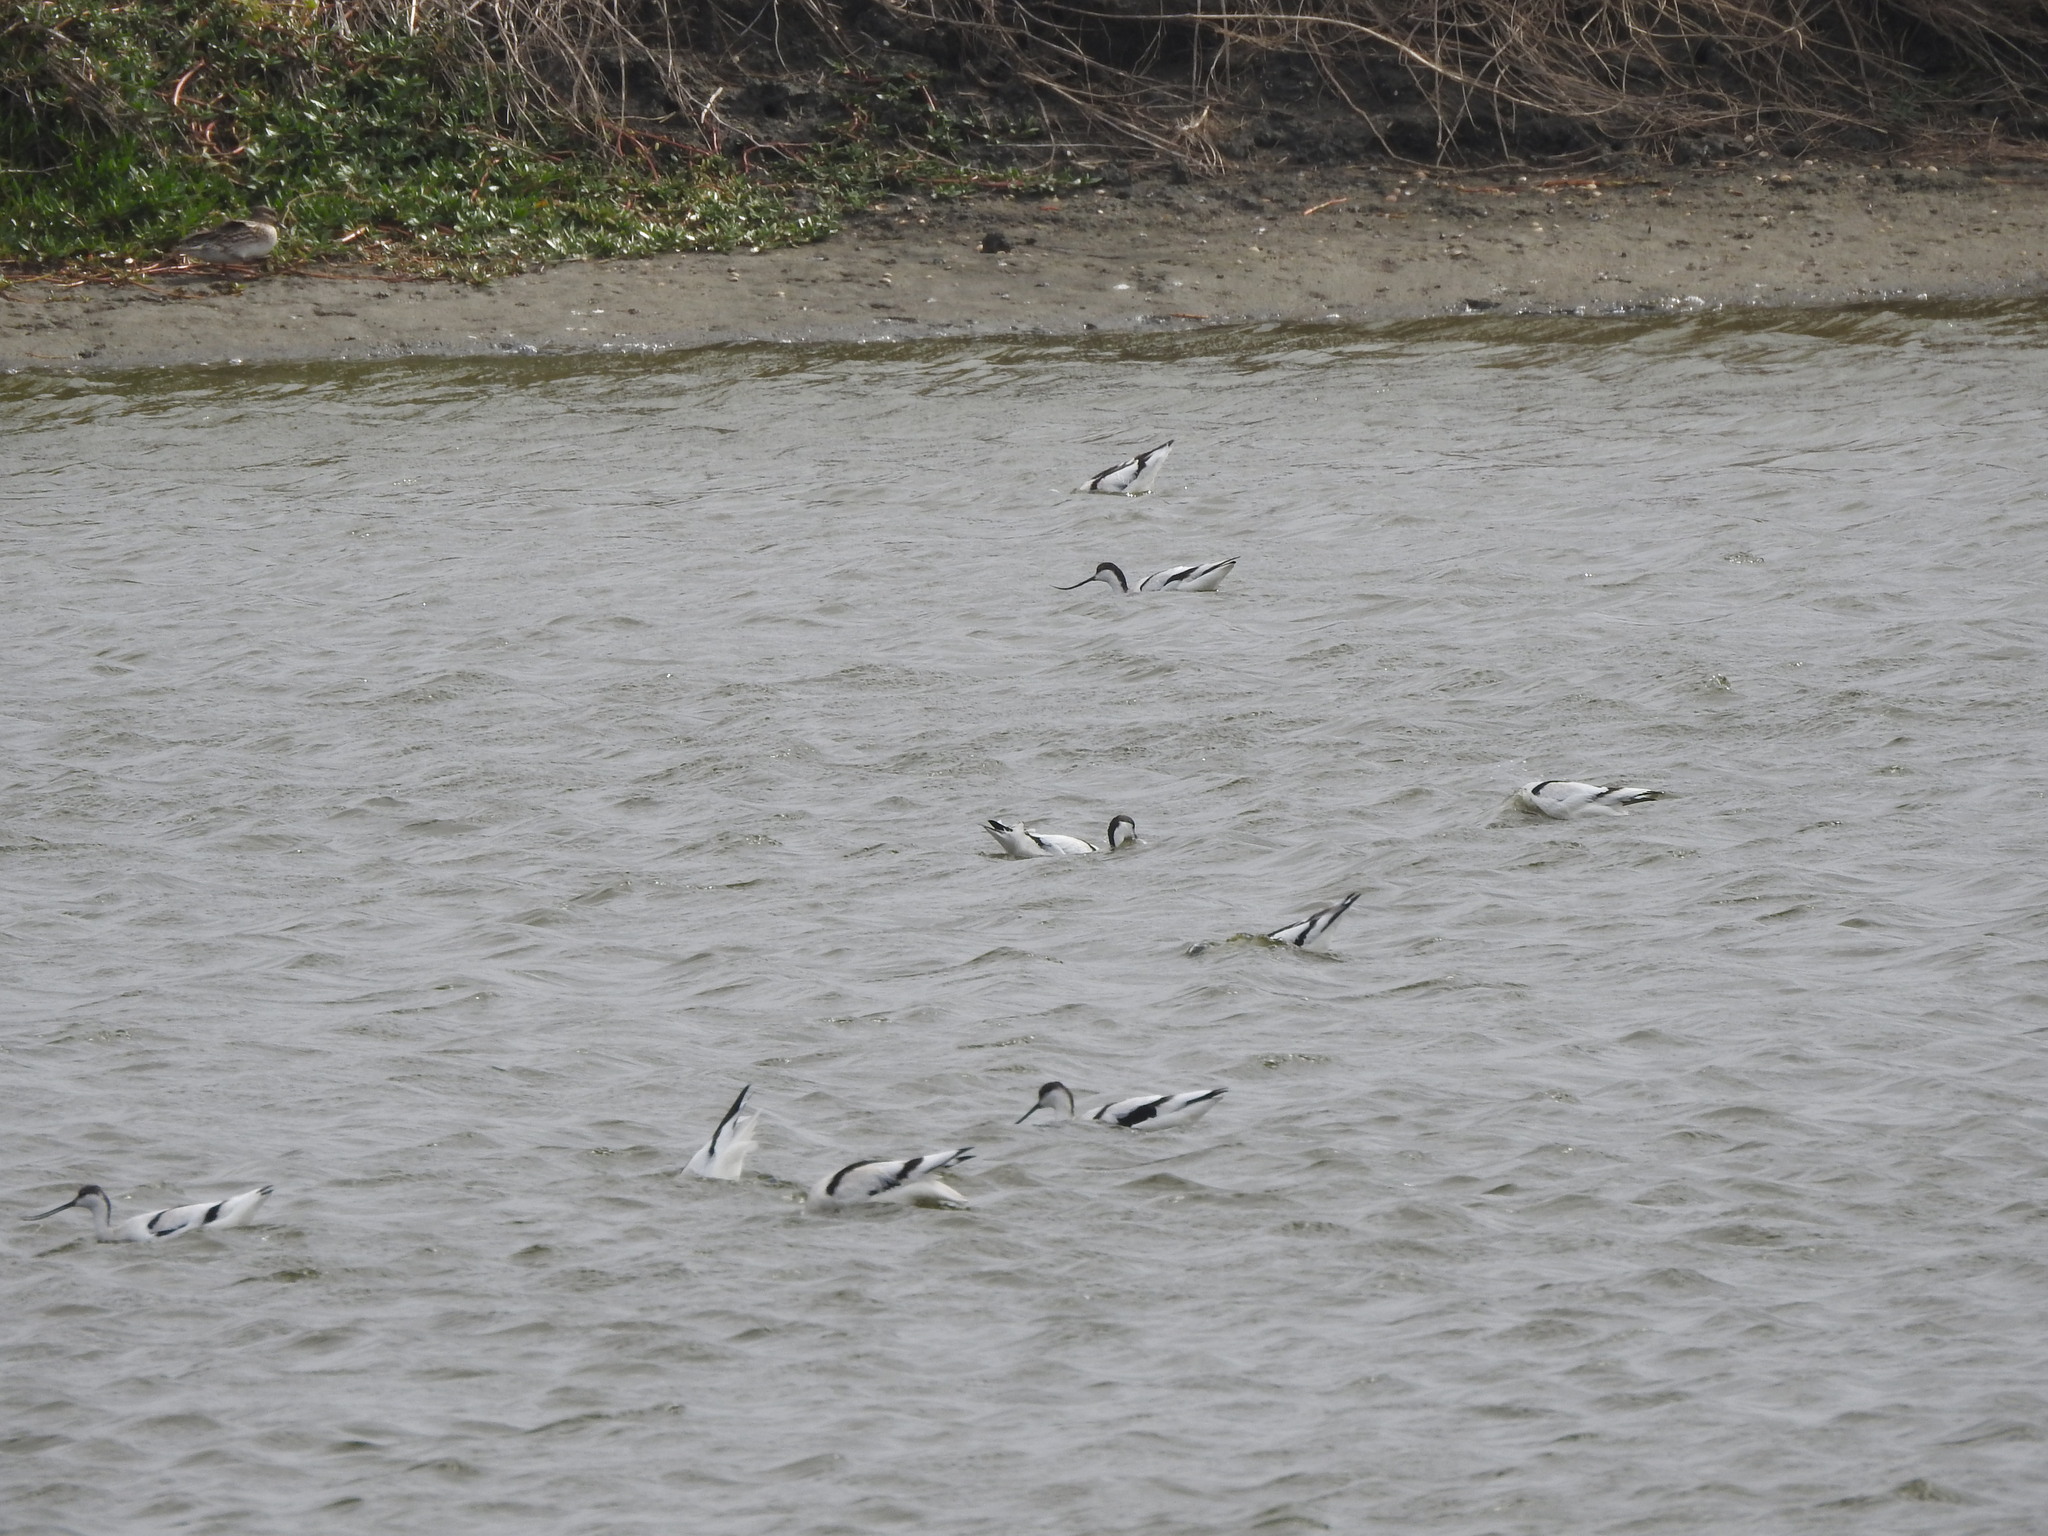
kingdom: Animalia
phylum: Chordata
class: Aves
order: Charadriiformes
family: Recurvirostridae
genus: Recurvirostra
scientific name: Recurvirostra avosetta
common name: Pied avocet
